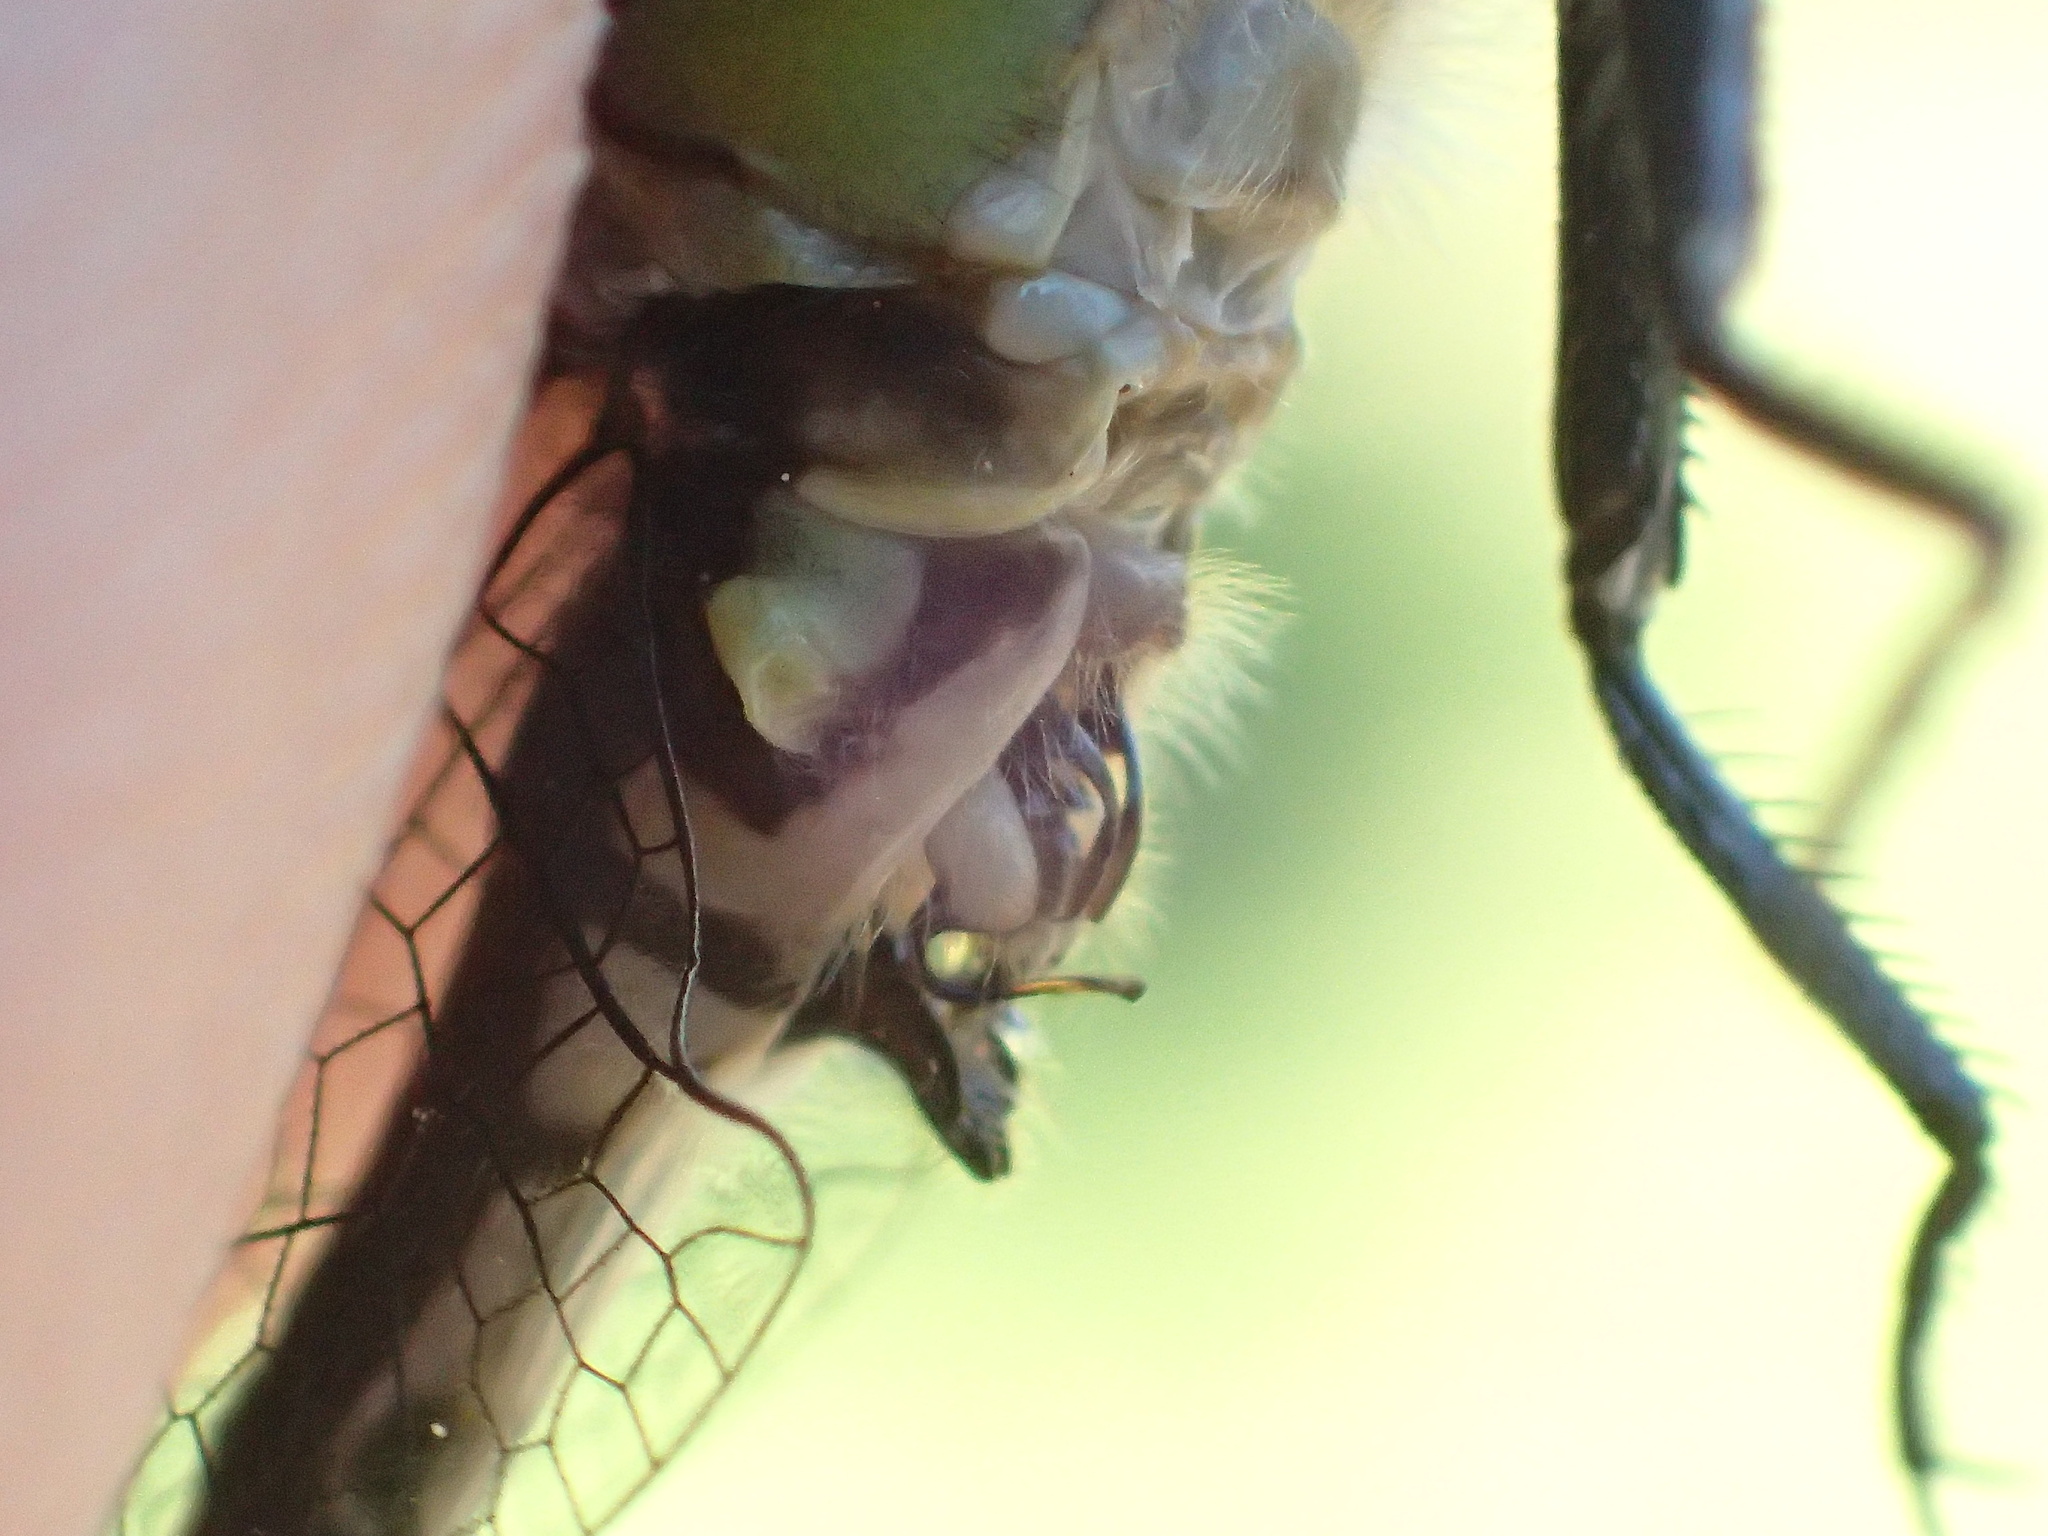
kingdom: Animalia
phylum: Arthropoda
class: Insecta
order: Odonata
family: Gomphidae
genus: Ophiogomphus
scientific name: Ophiogomphus carolus
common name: Riffle snaketail
